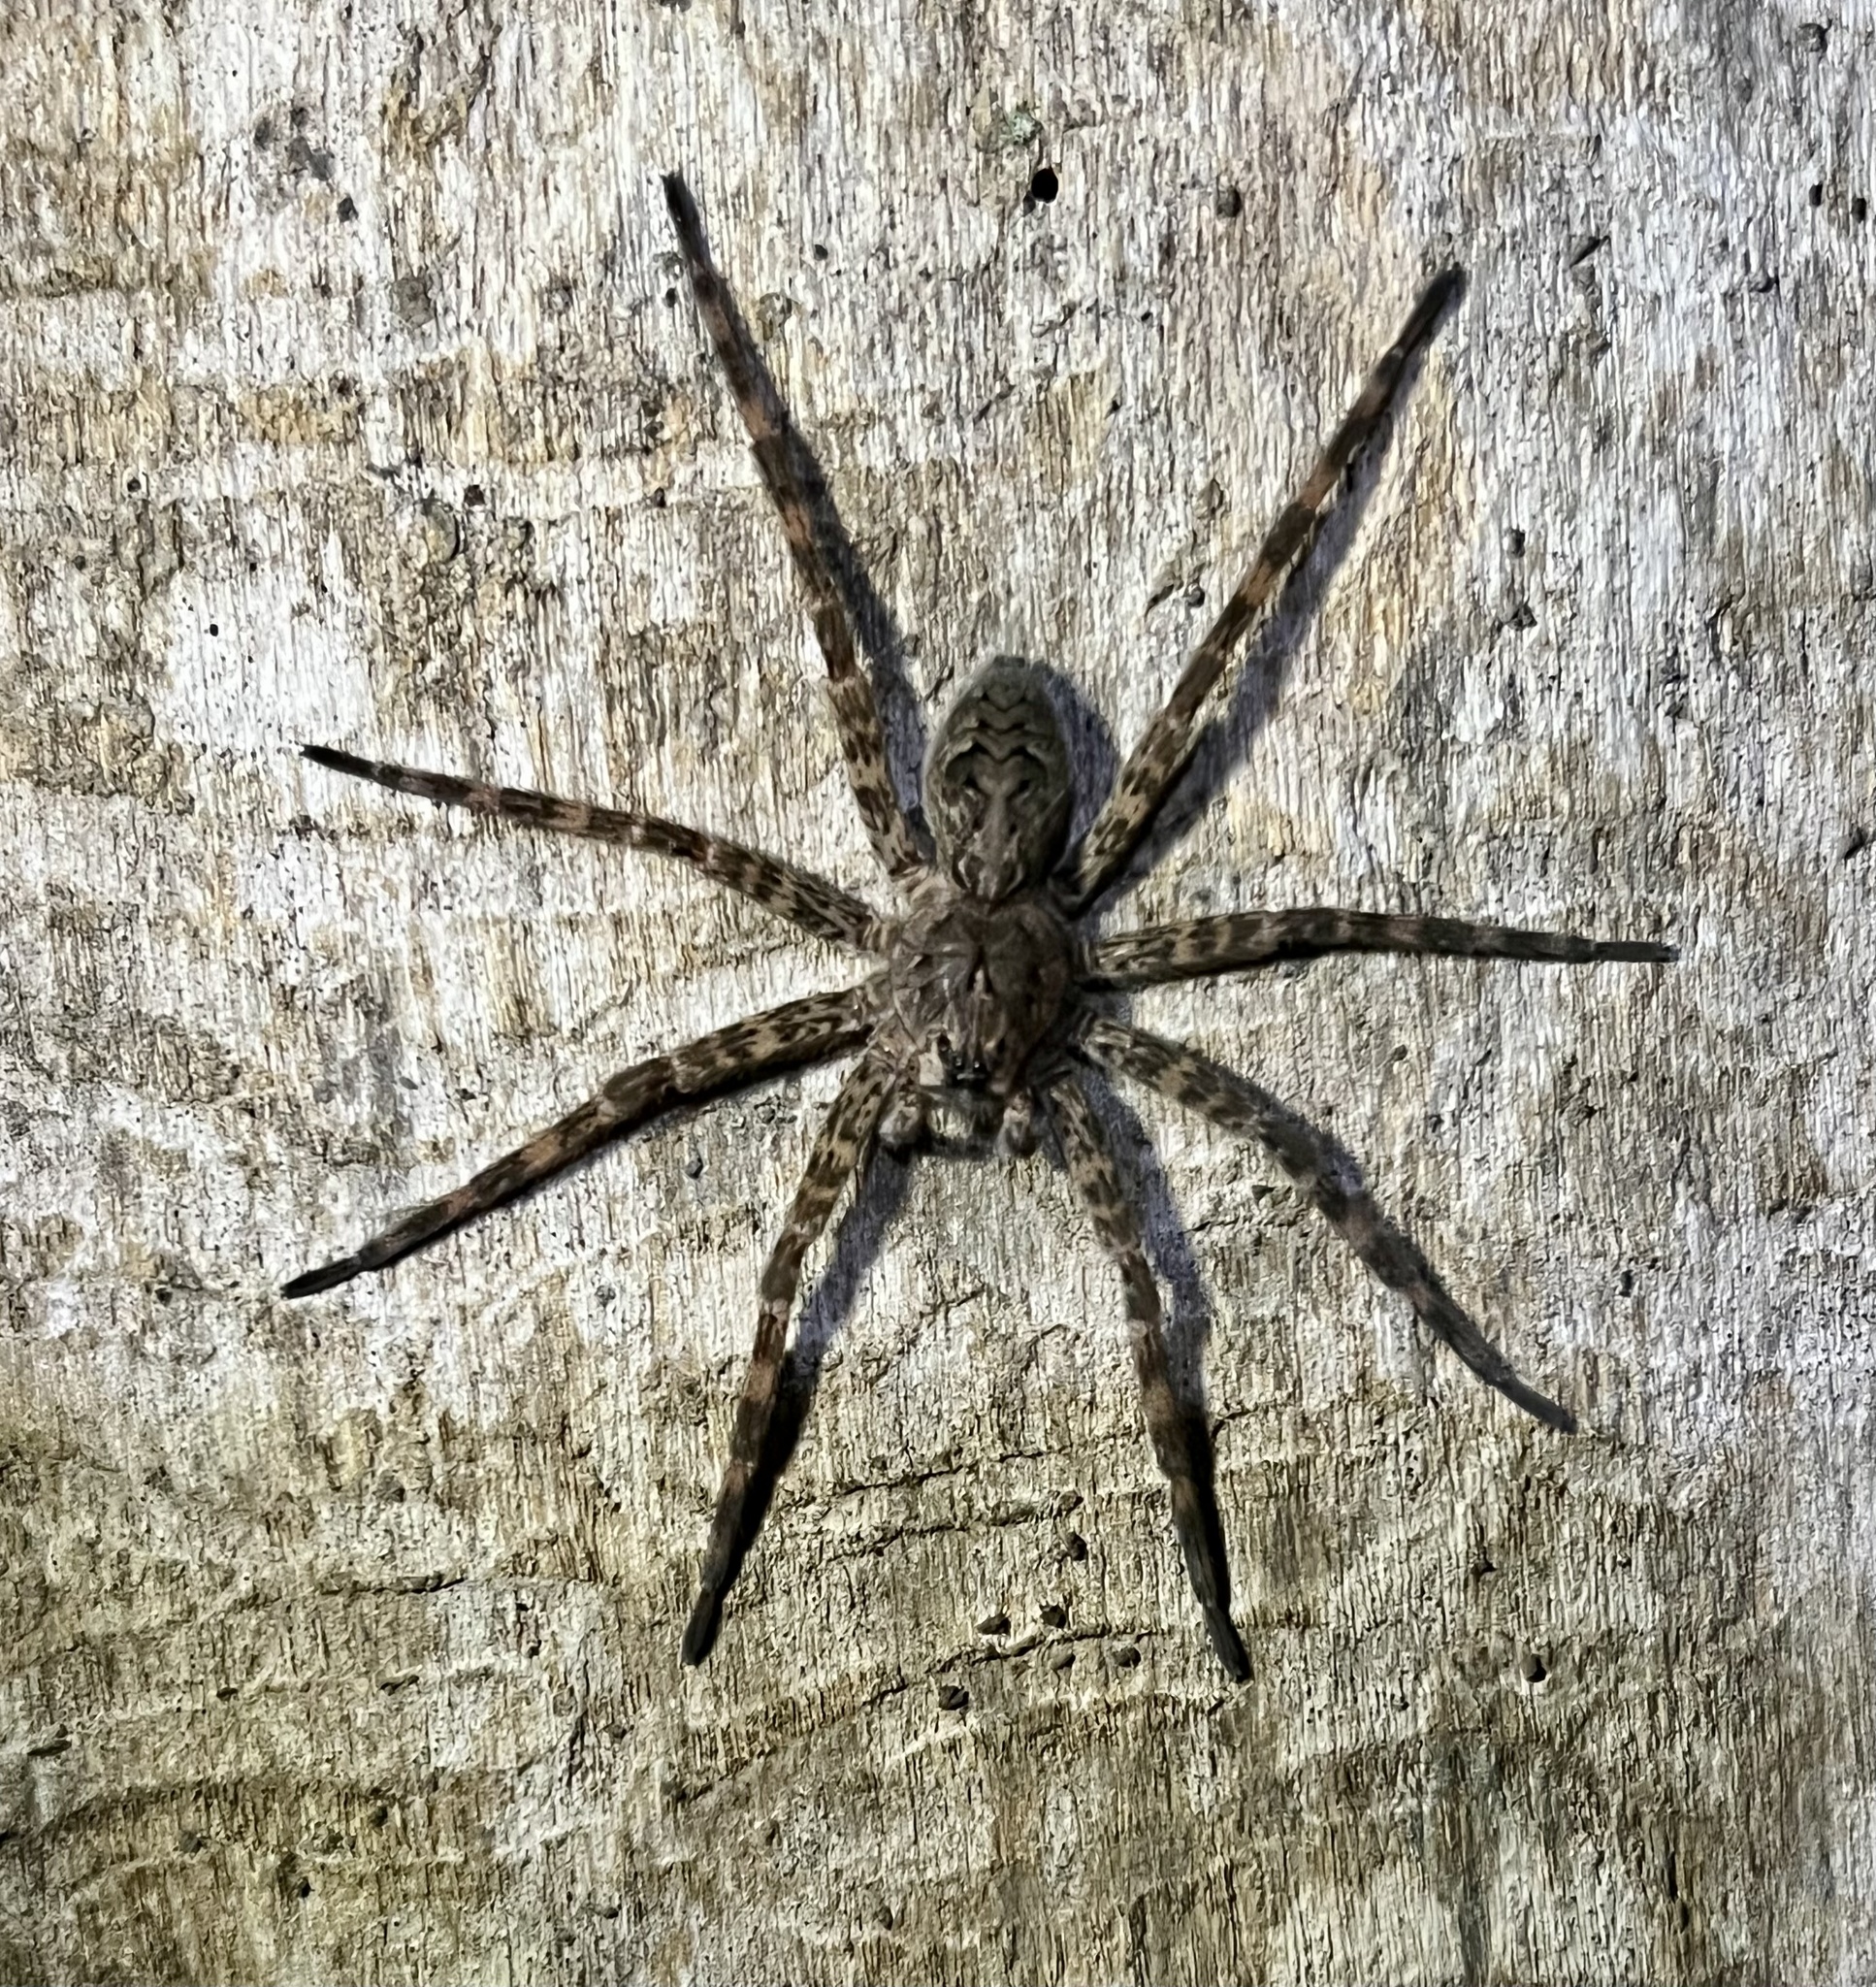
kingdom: Animalia
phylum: Arthropoda
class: Arachnida
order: Araneae
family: Pisauridae
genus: Dolomedes
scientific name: Dolomedes tenebrosus
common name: Dark fishing spider
